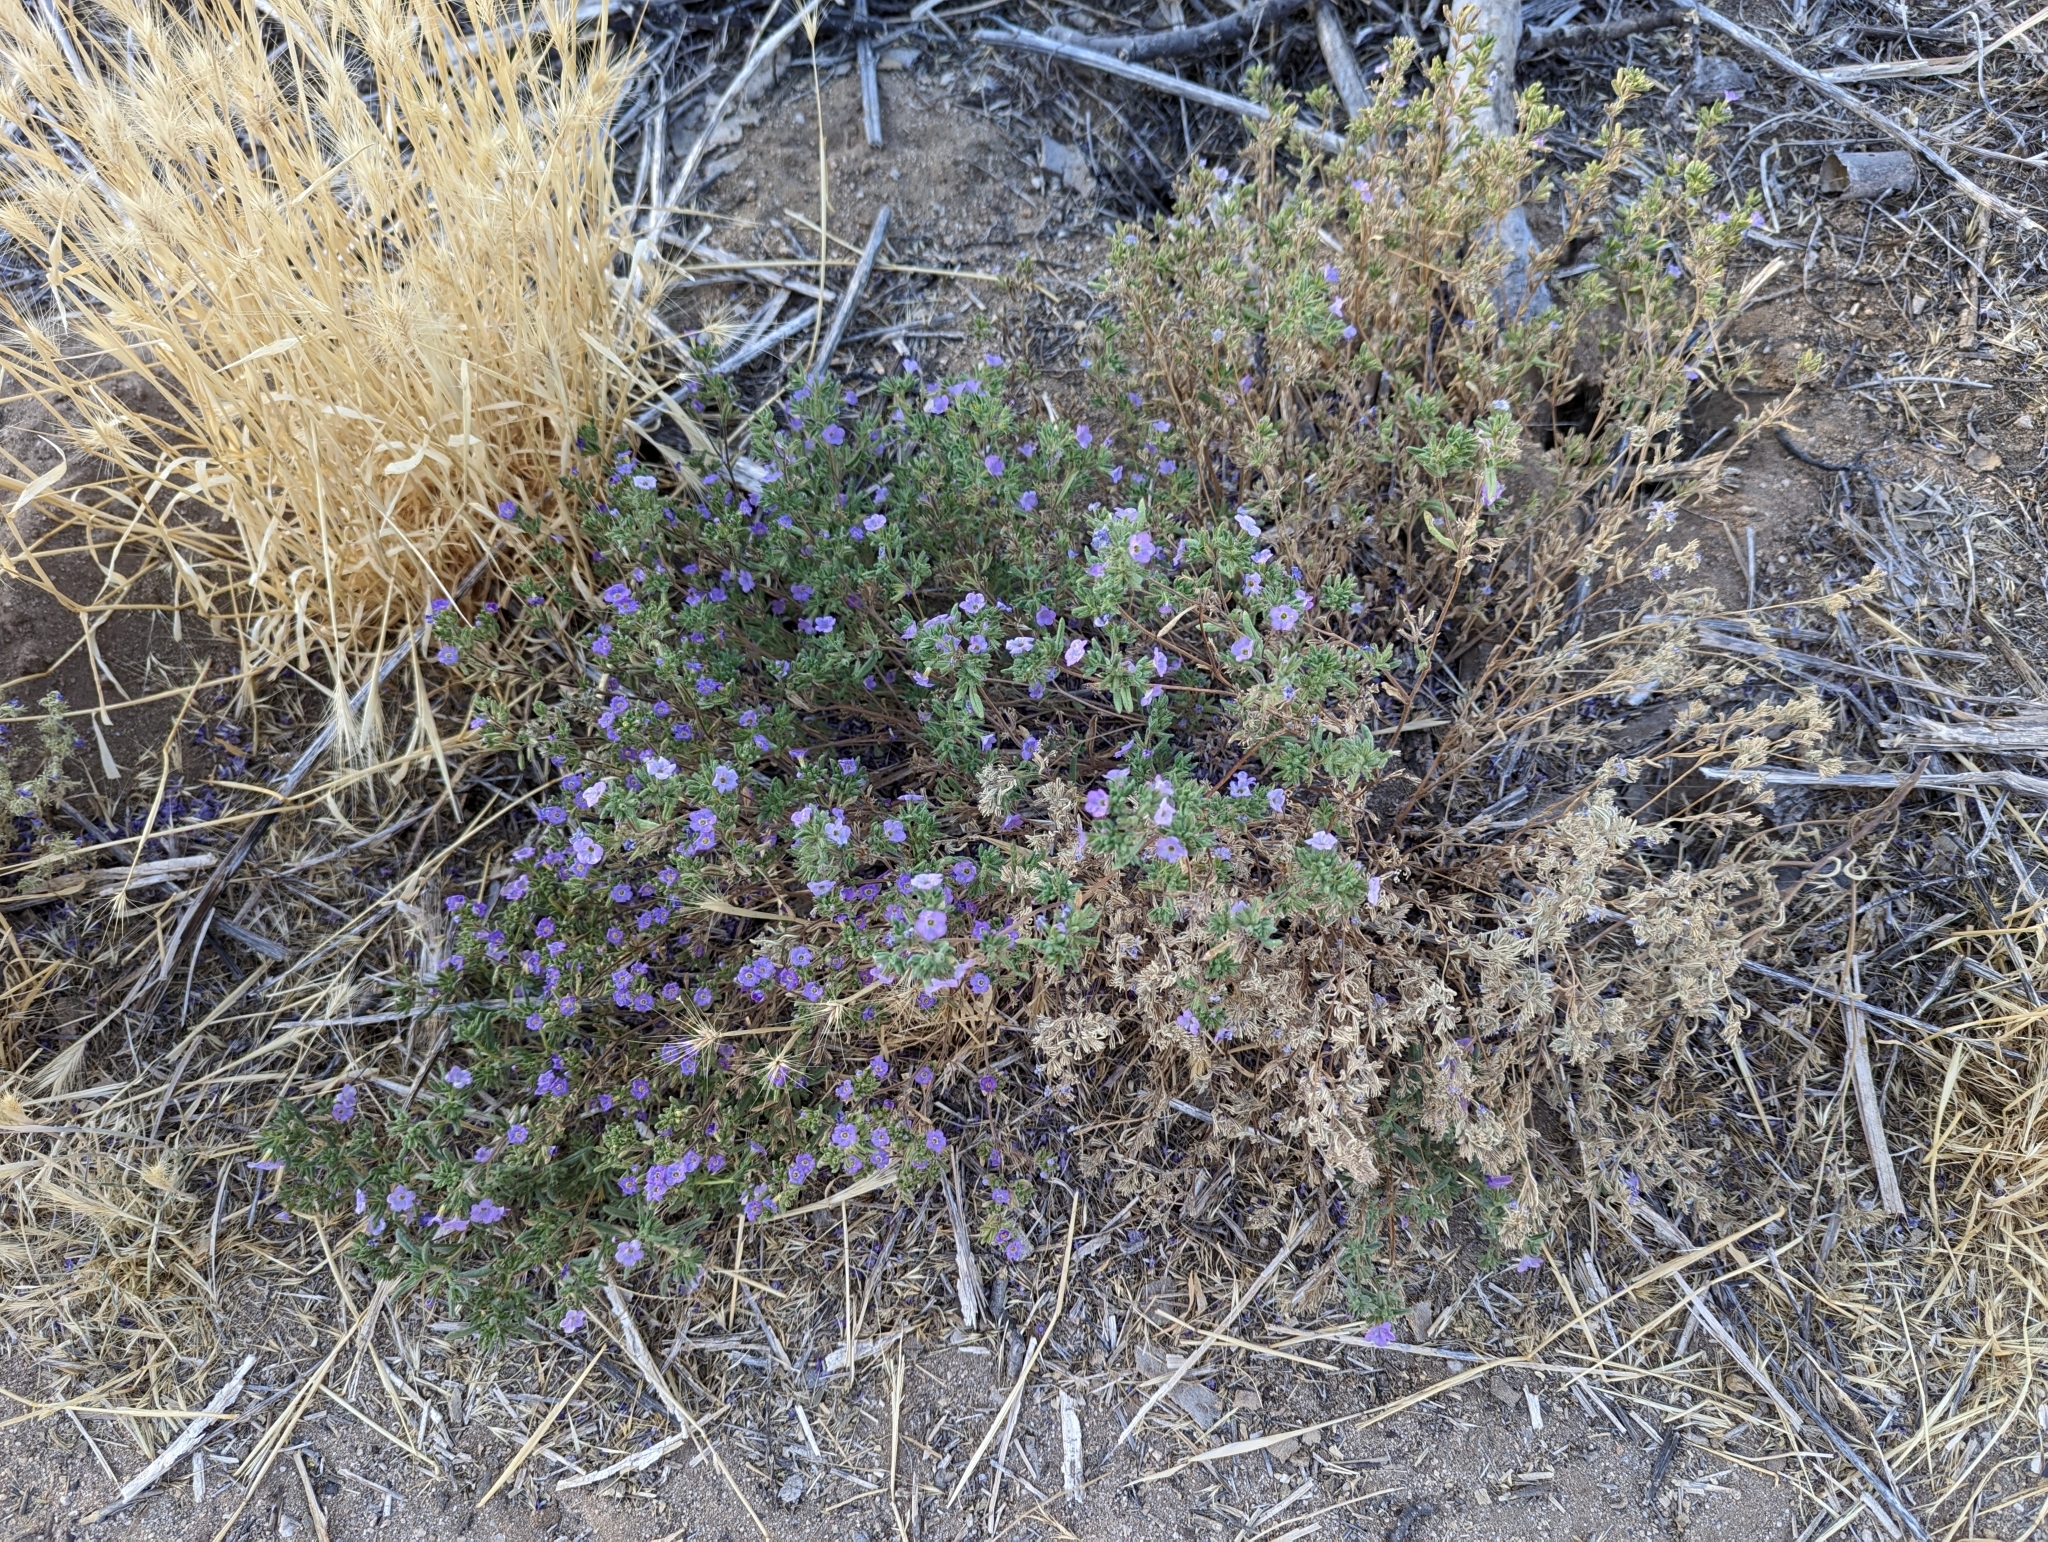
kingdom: Plantae
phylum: Tracheophyta
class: Magnoliopsida
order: Boraginales
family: Namaceae
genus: Nama
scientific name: Nama hispida
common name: Bristly nama
